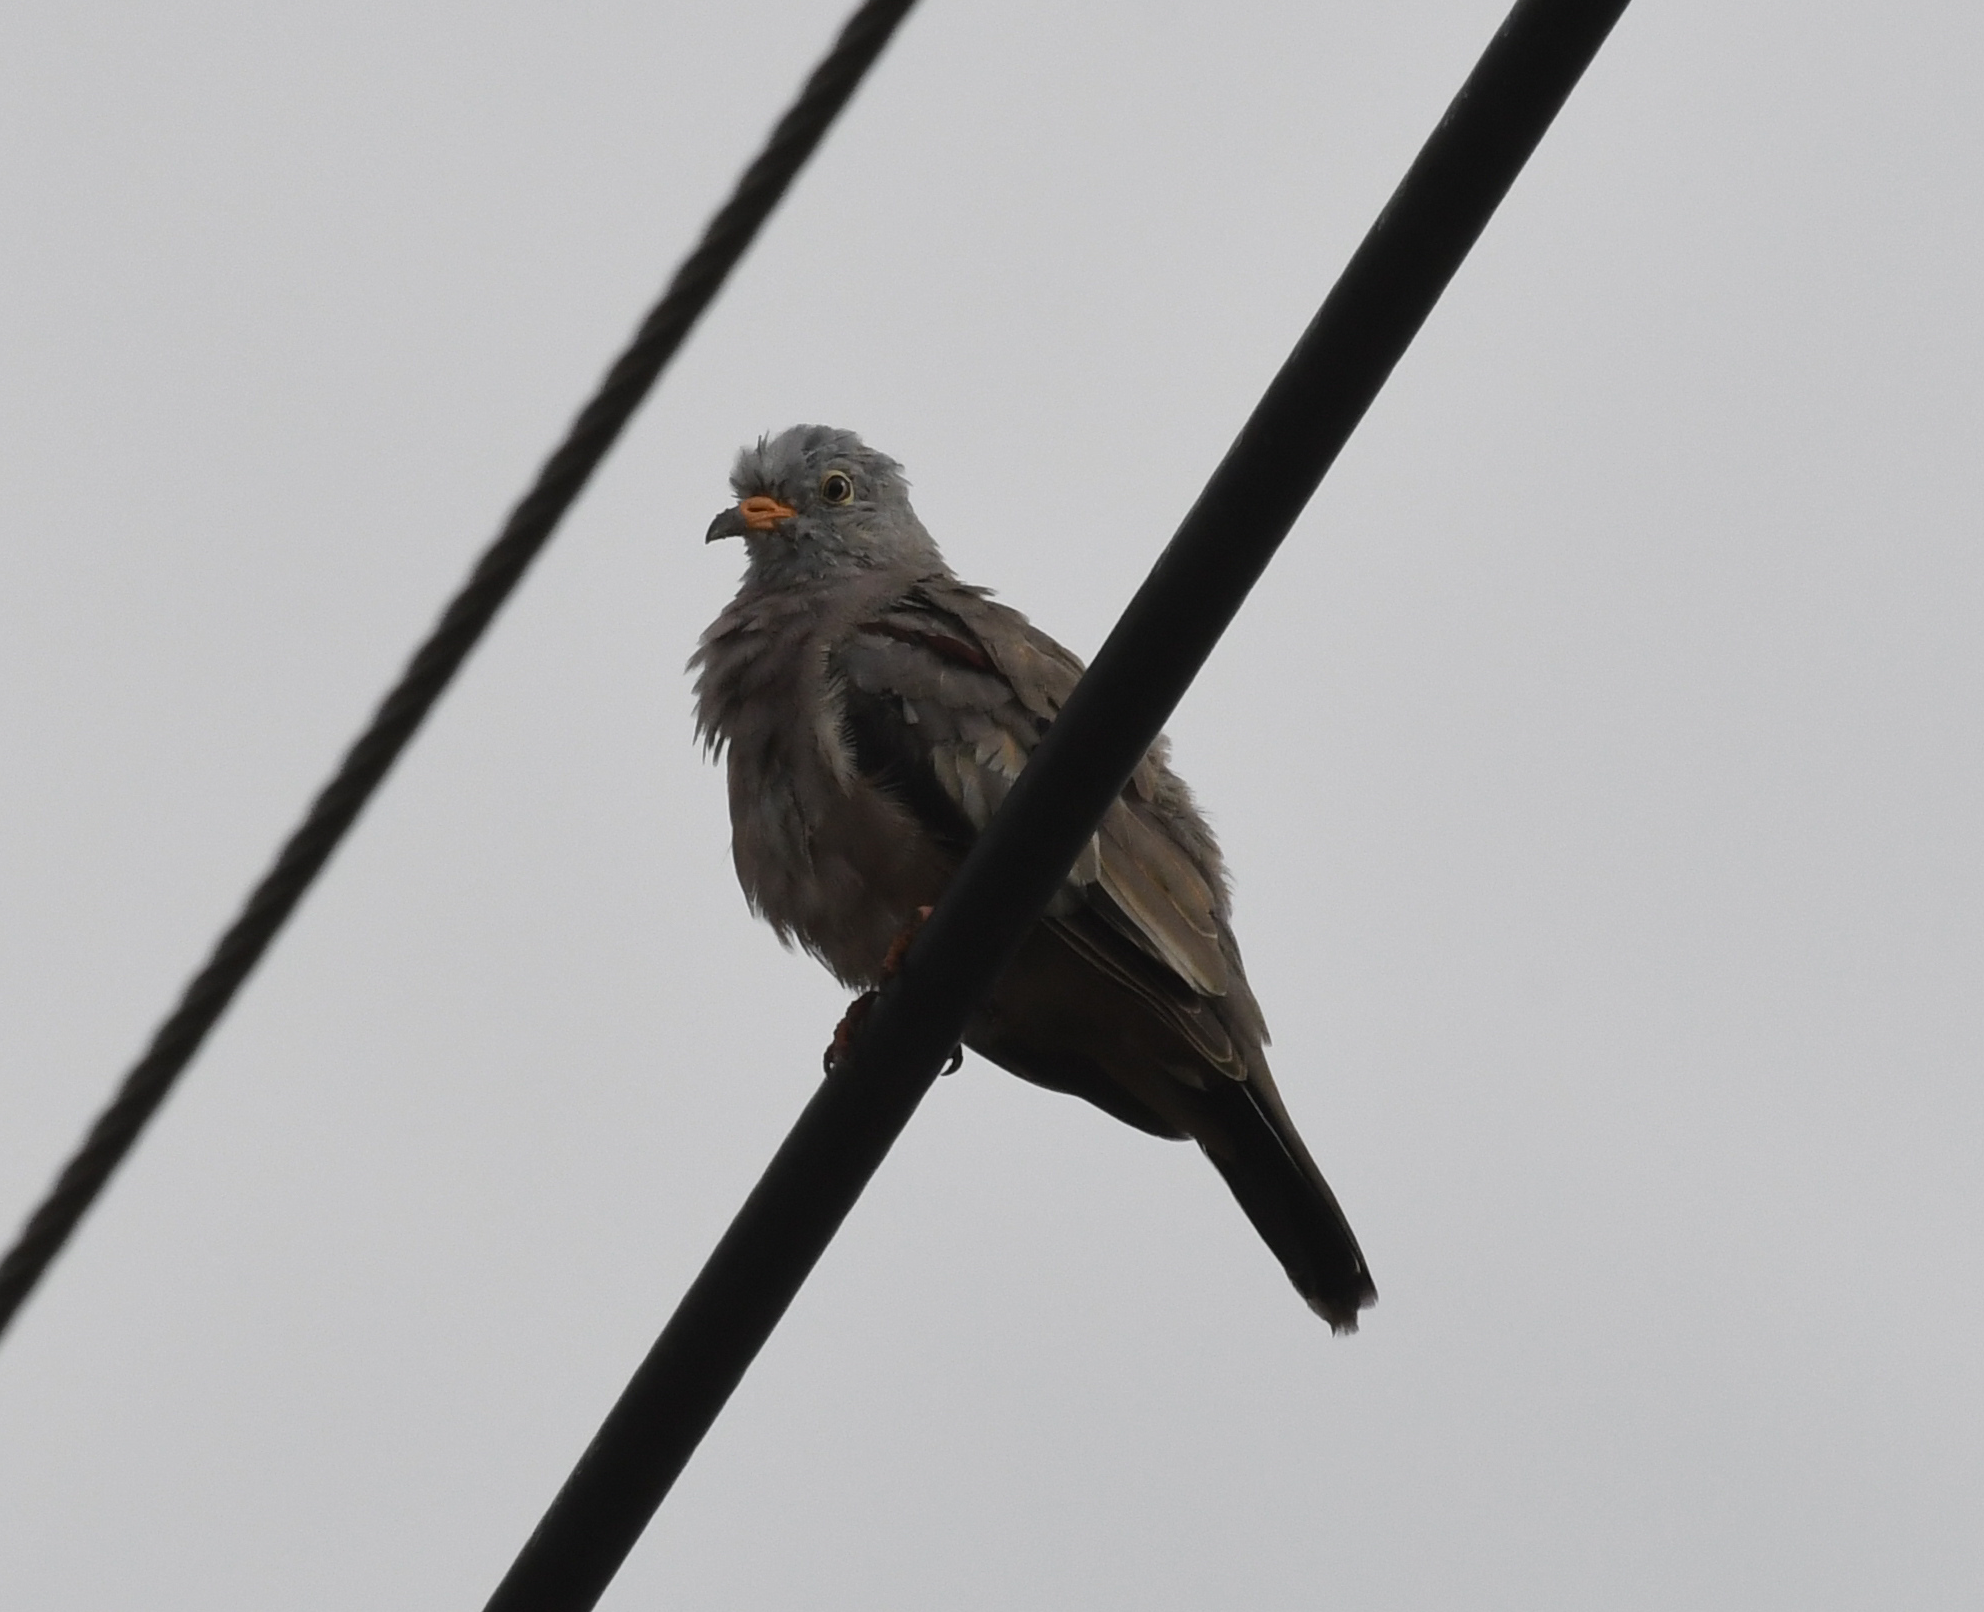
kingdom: Animalia
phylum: Chordata
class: Aves
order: Columbiformes
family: Columbidae
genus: Columbina
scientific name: Columbina cruziana
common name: Croaking ground dove
